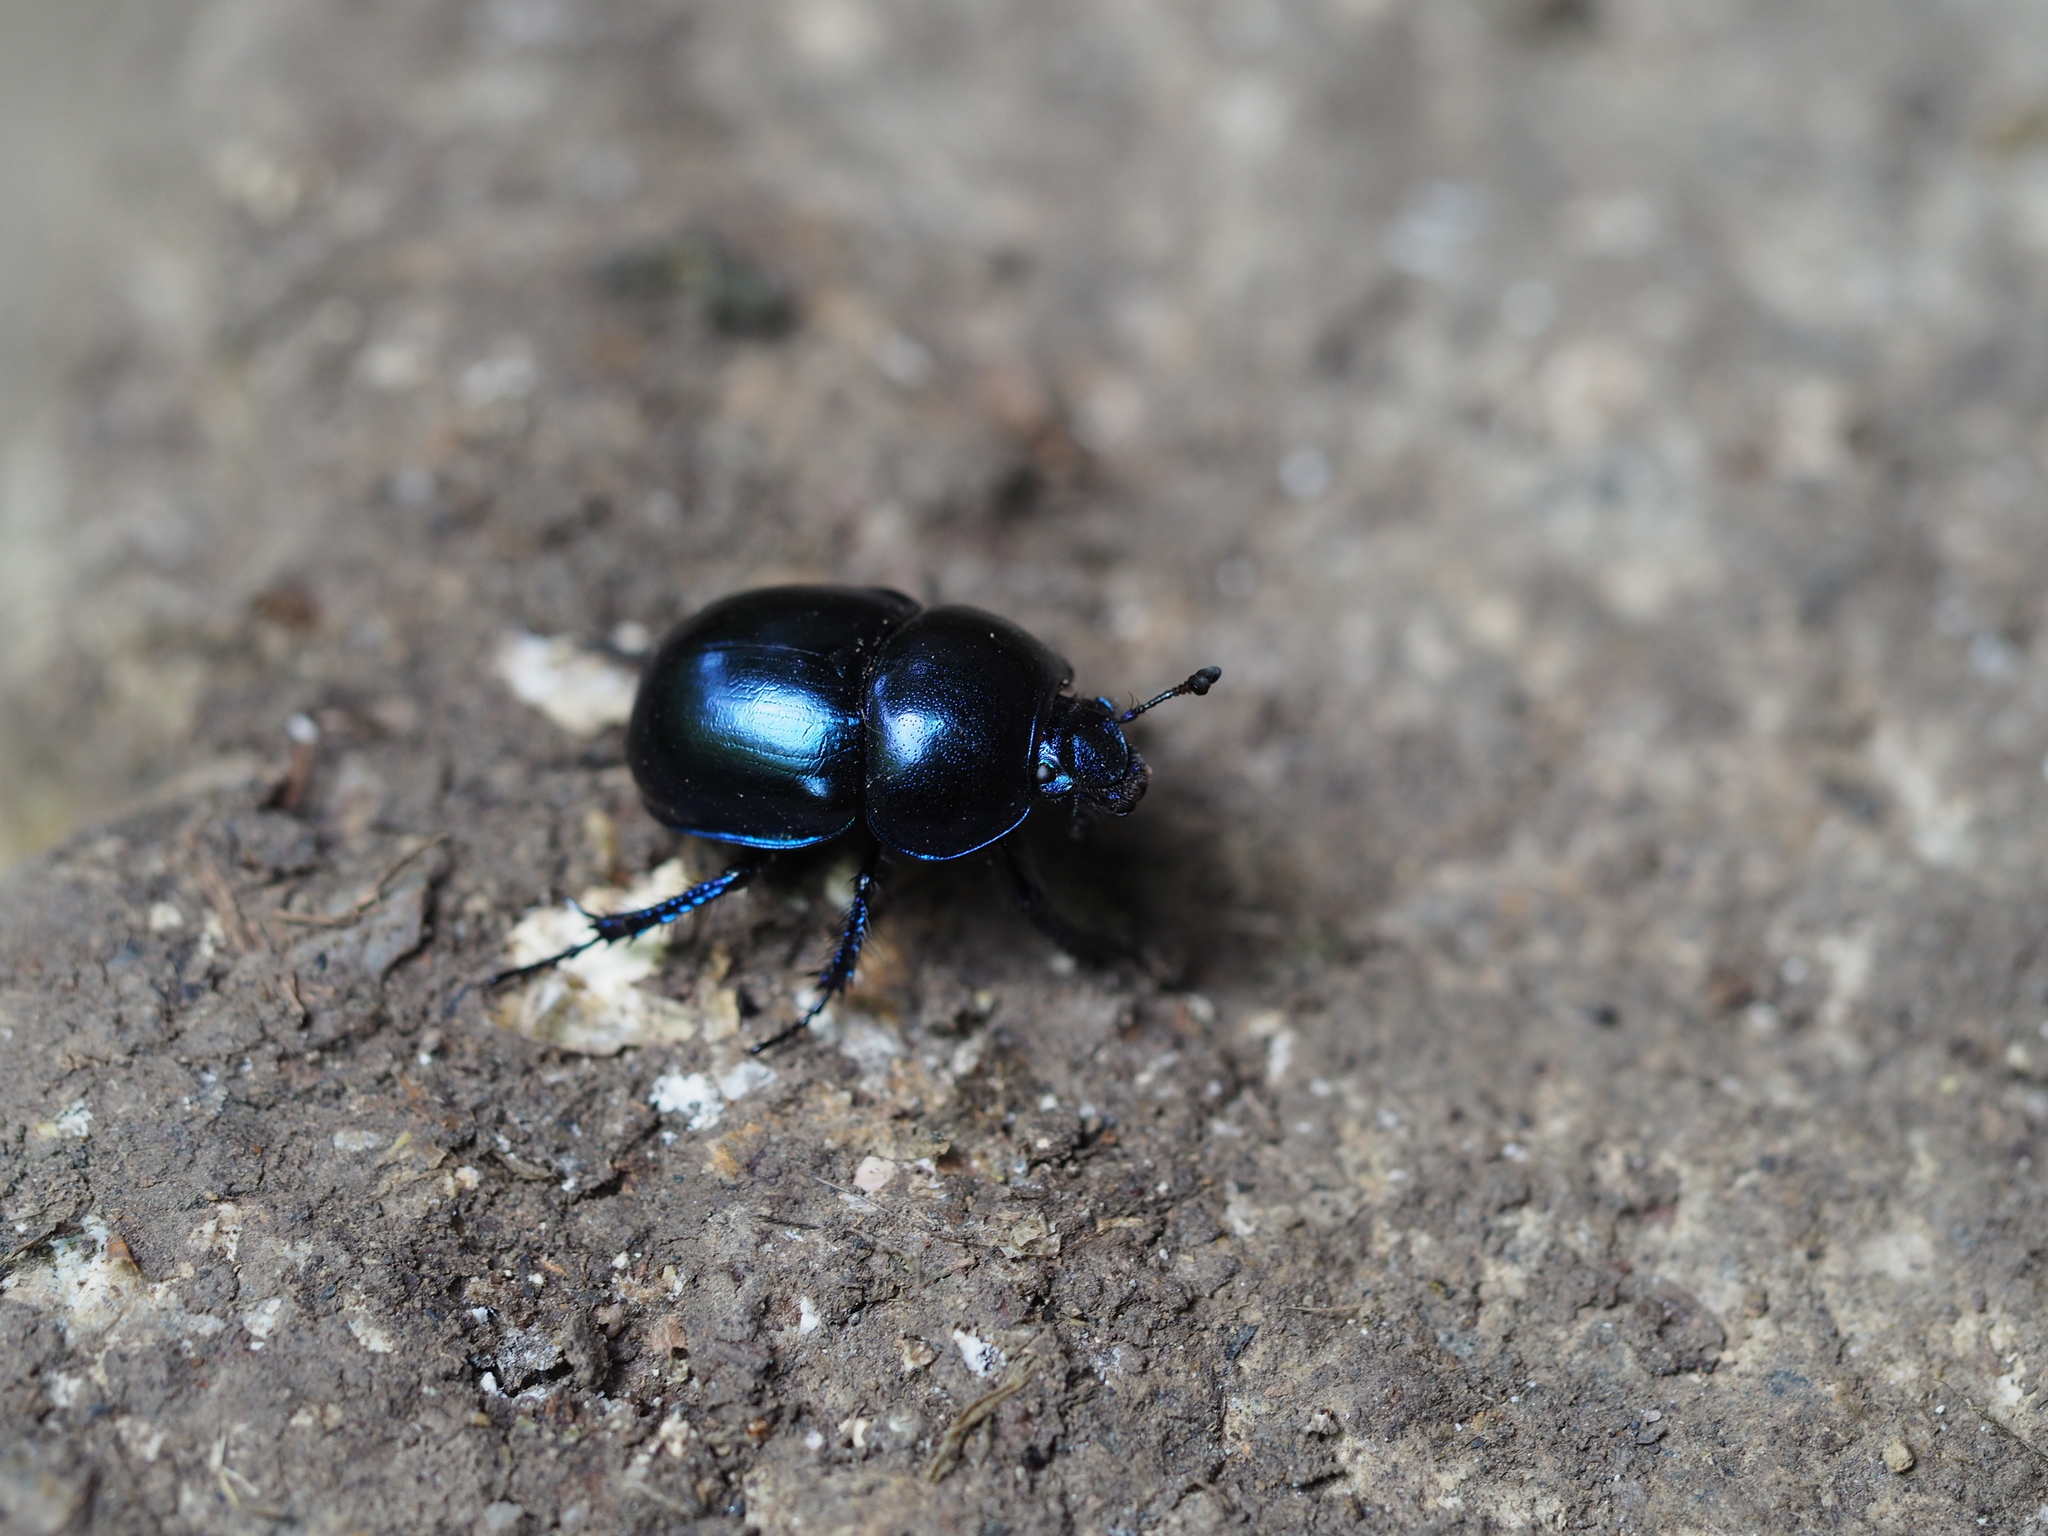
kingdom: Animalia
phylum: Arthropoda
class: Insecta
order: Coleoptera
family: Geotrupidae
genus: Trypocopris
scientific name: Trypocopris vernalis
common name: Spring dumbledor
